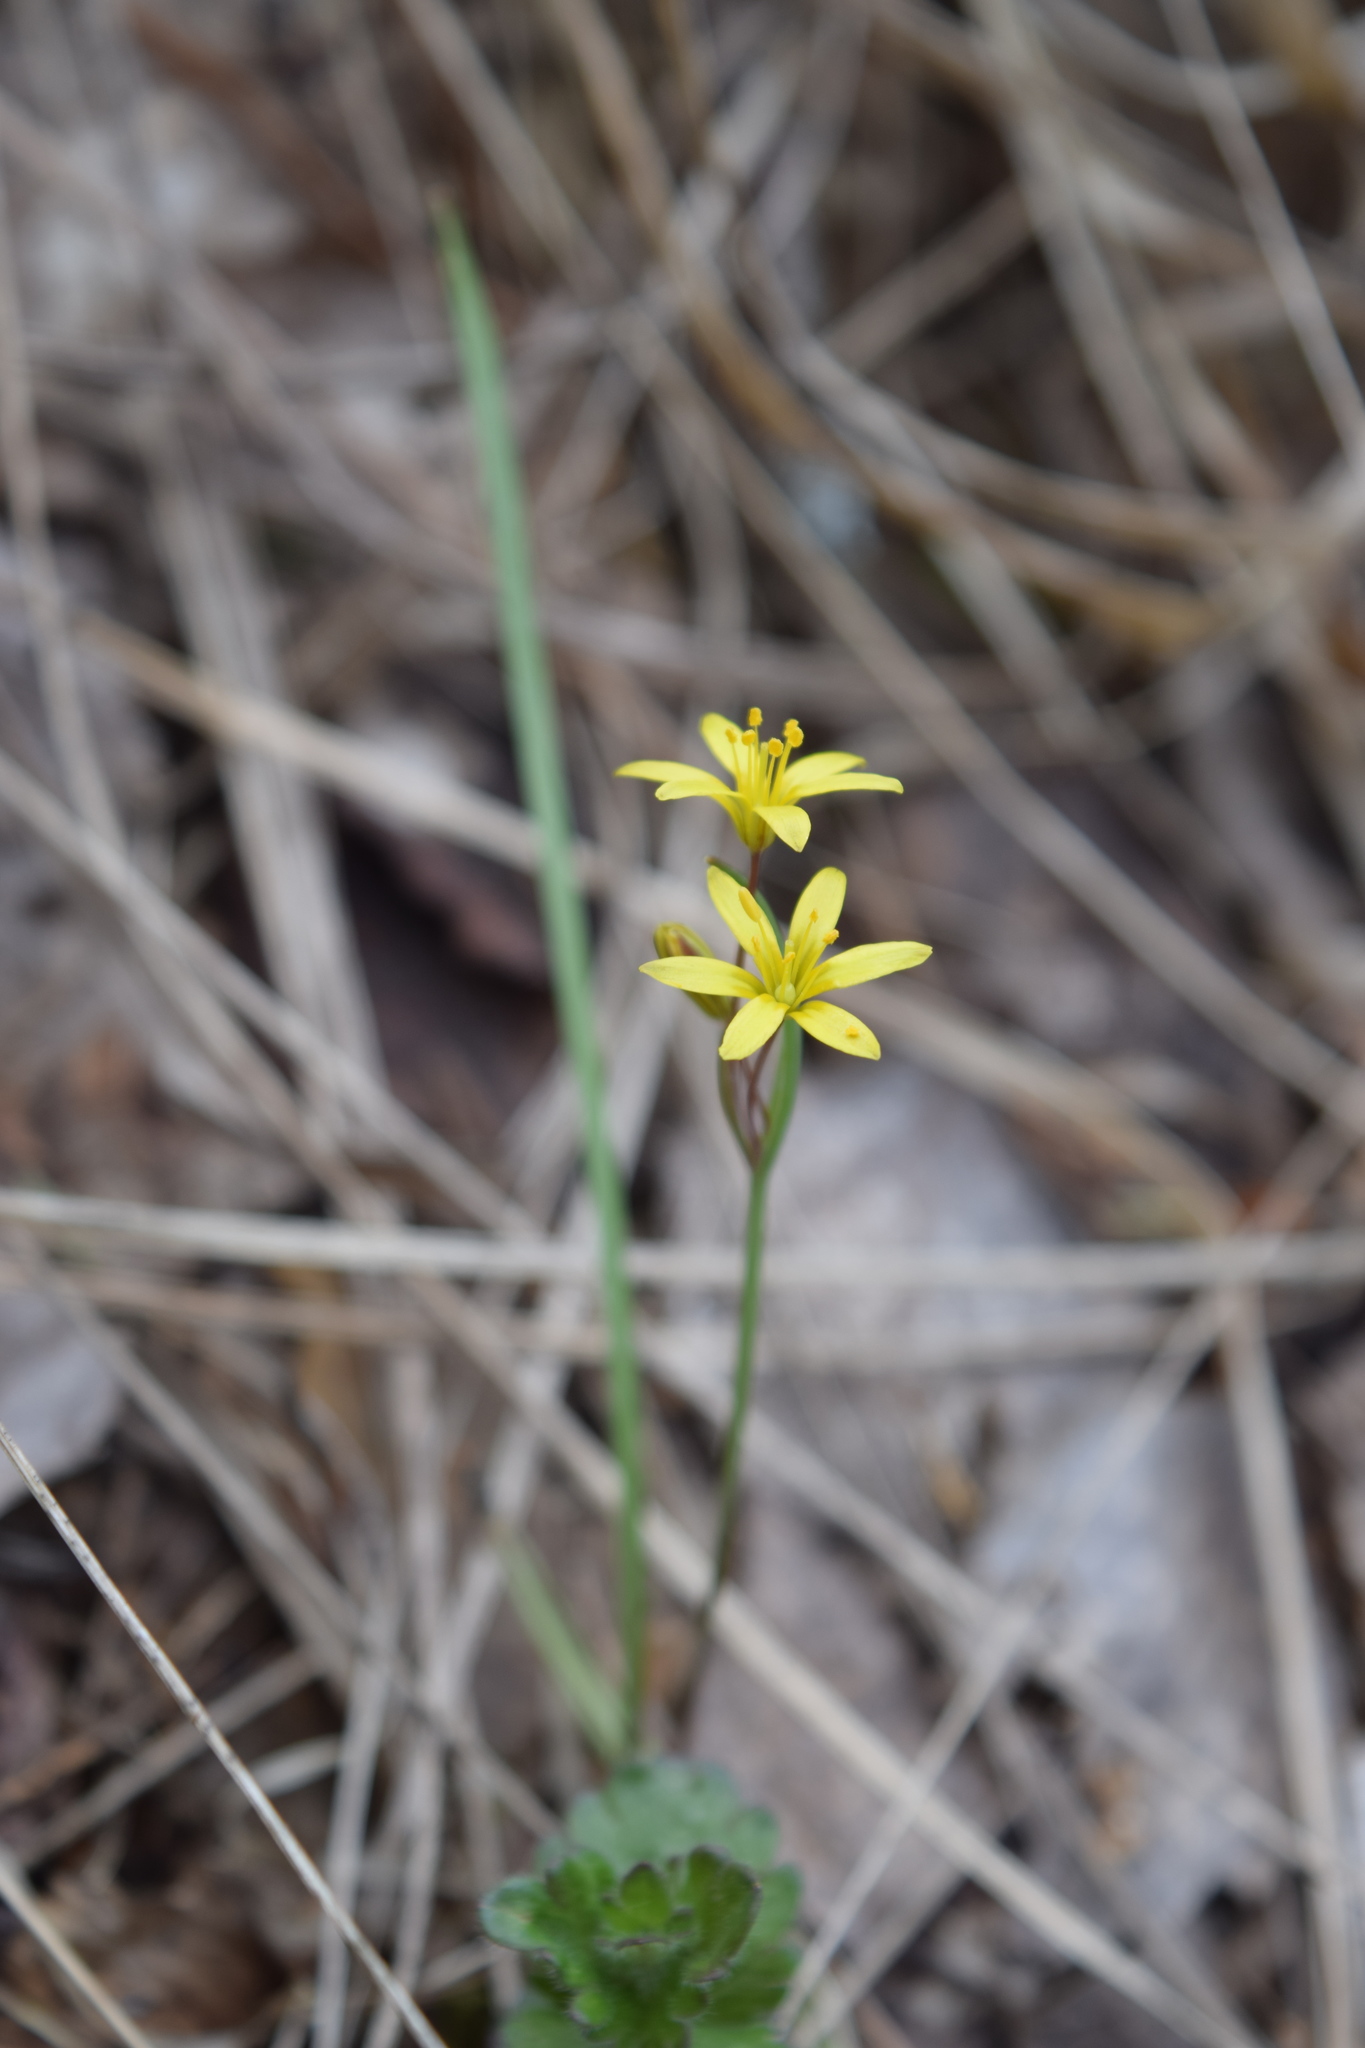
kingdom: Plantae
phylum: Tracheophyta
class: Liliopsida
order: Liliales
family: Liliaceae
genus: Gagea
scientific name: Gagea fragifera
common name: Lily
